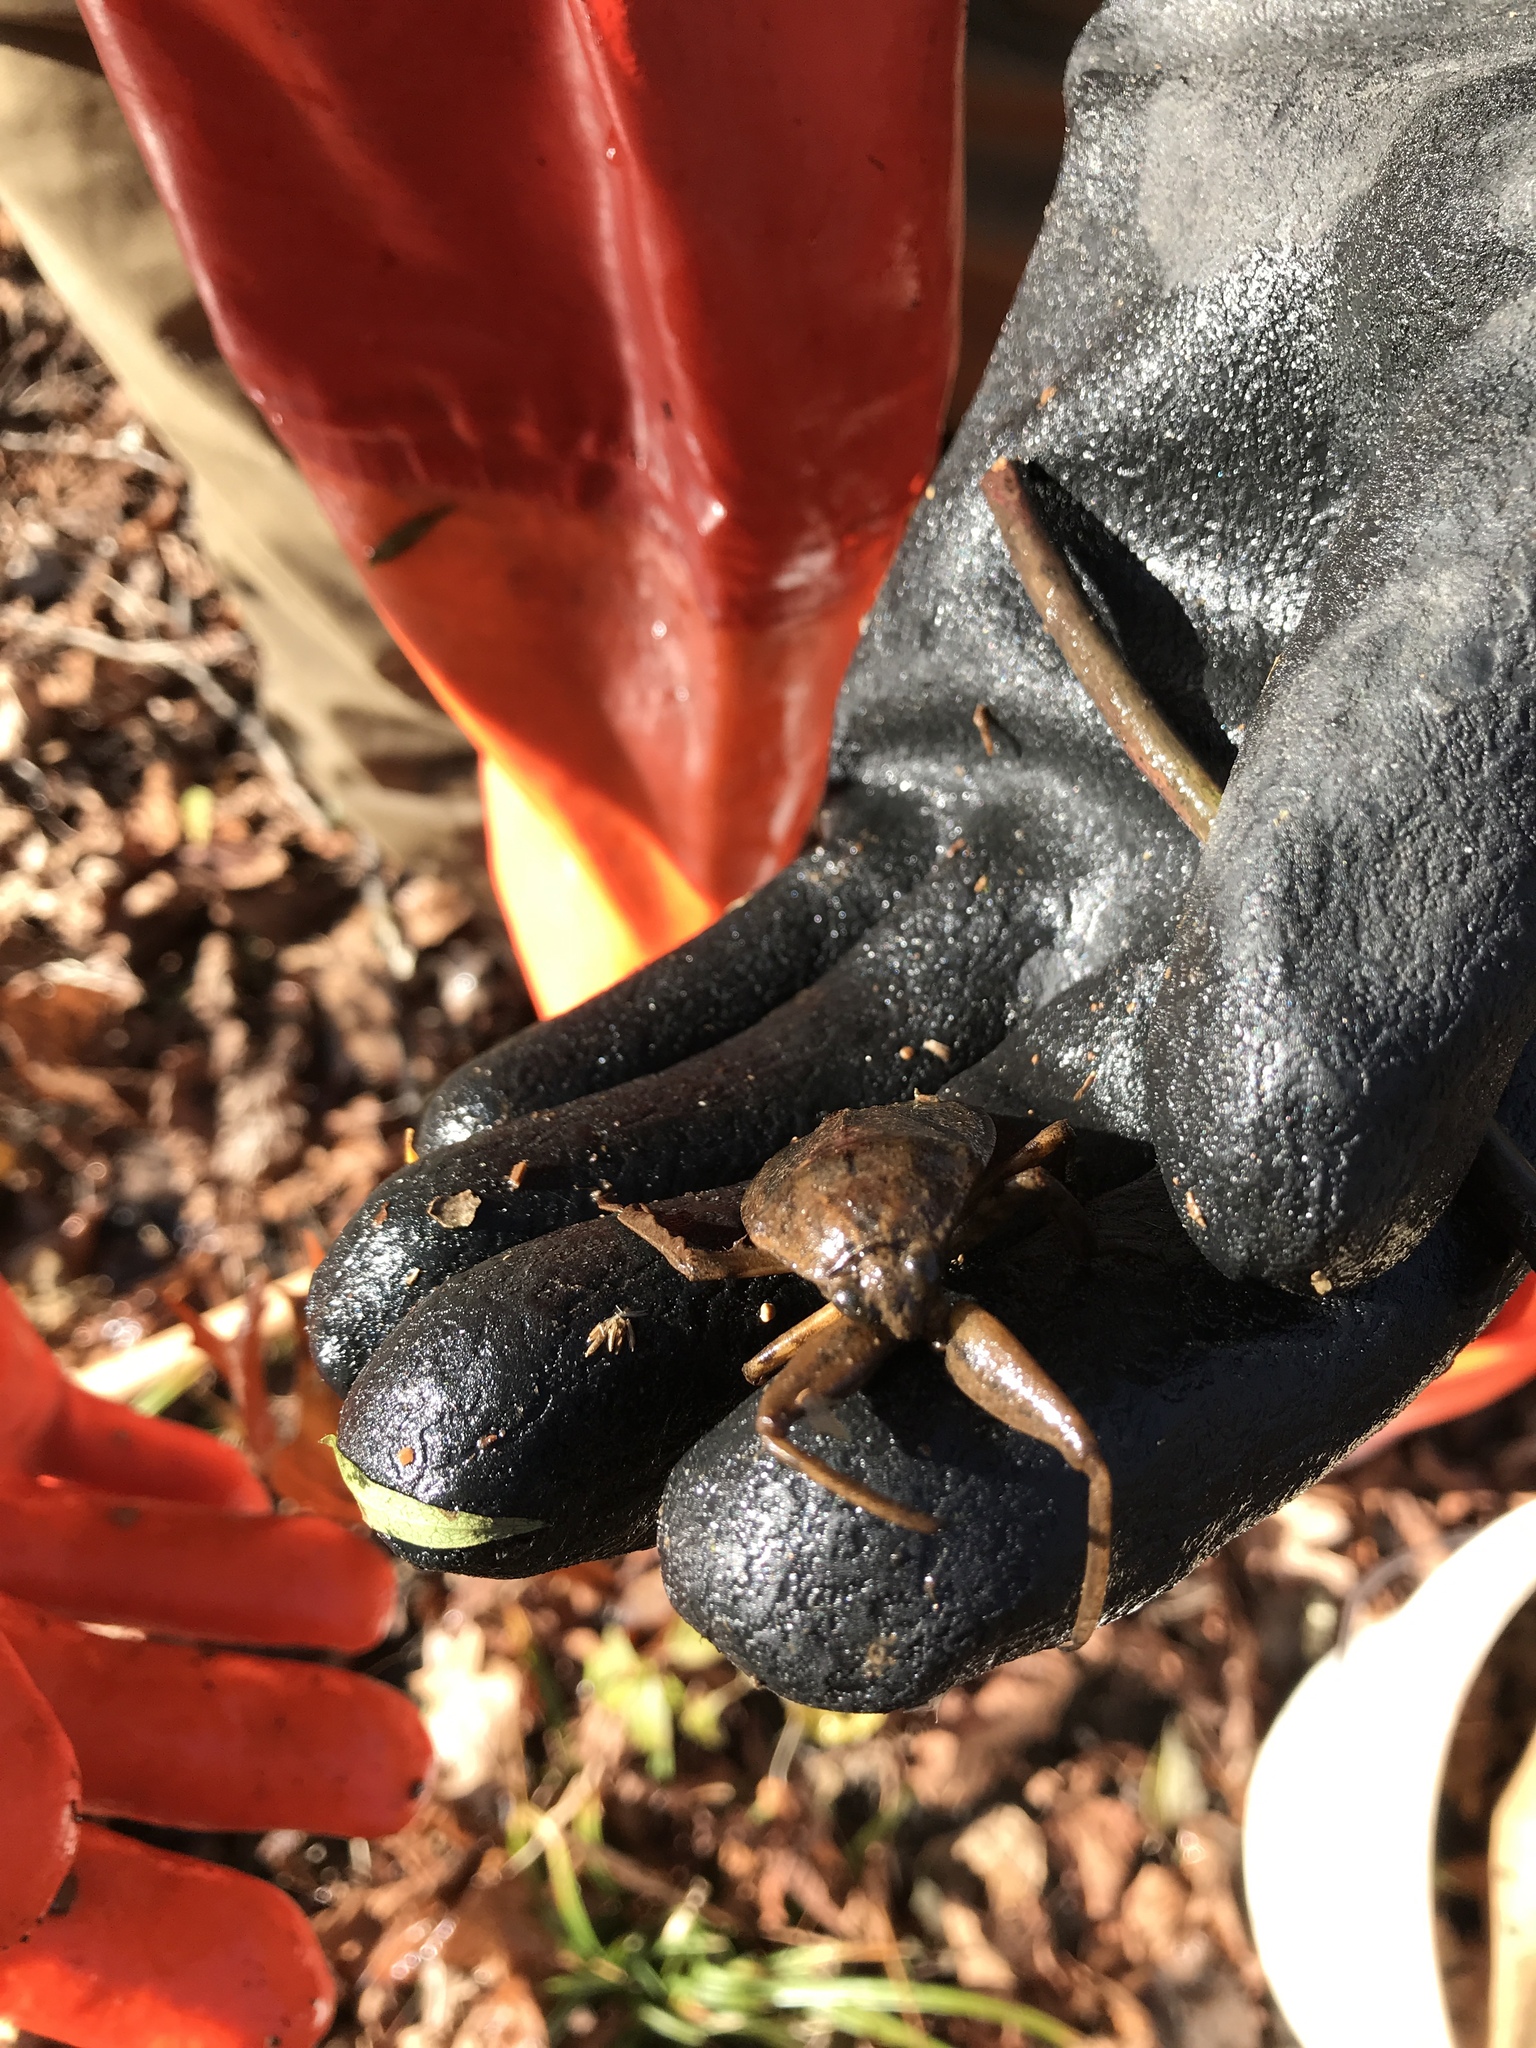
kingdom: Animalia
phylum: Arthropoda
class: Insecta
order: Hemiptera
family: Belostomatidae
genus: Lethocerus
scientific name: Lethocerus americanus
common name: Giant water bug
